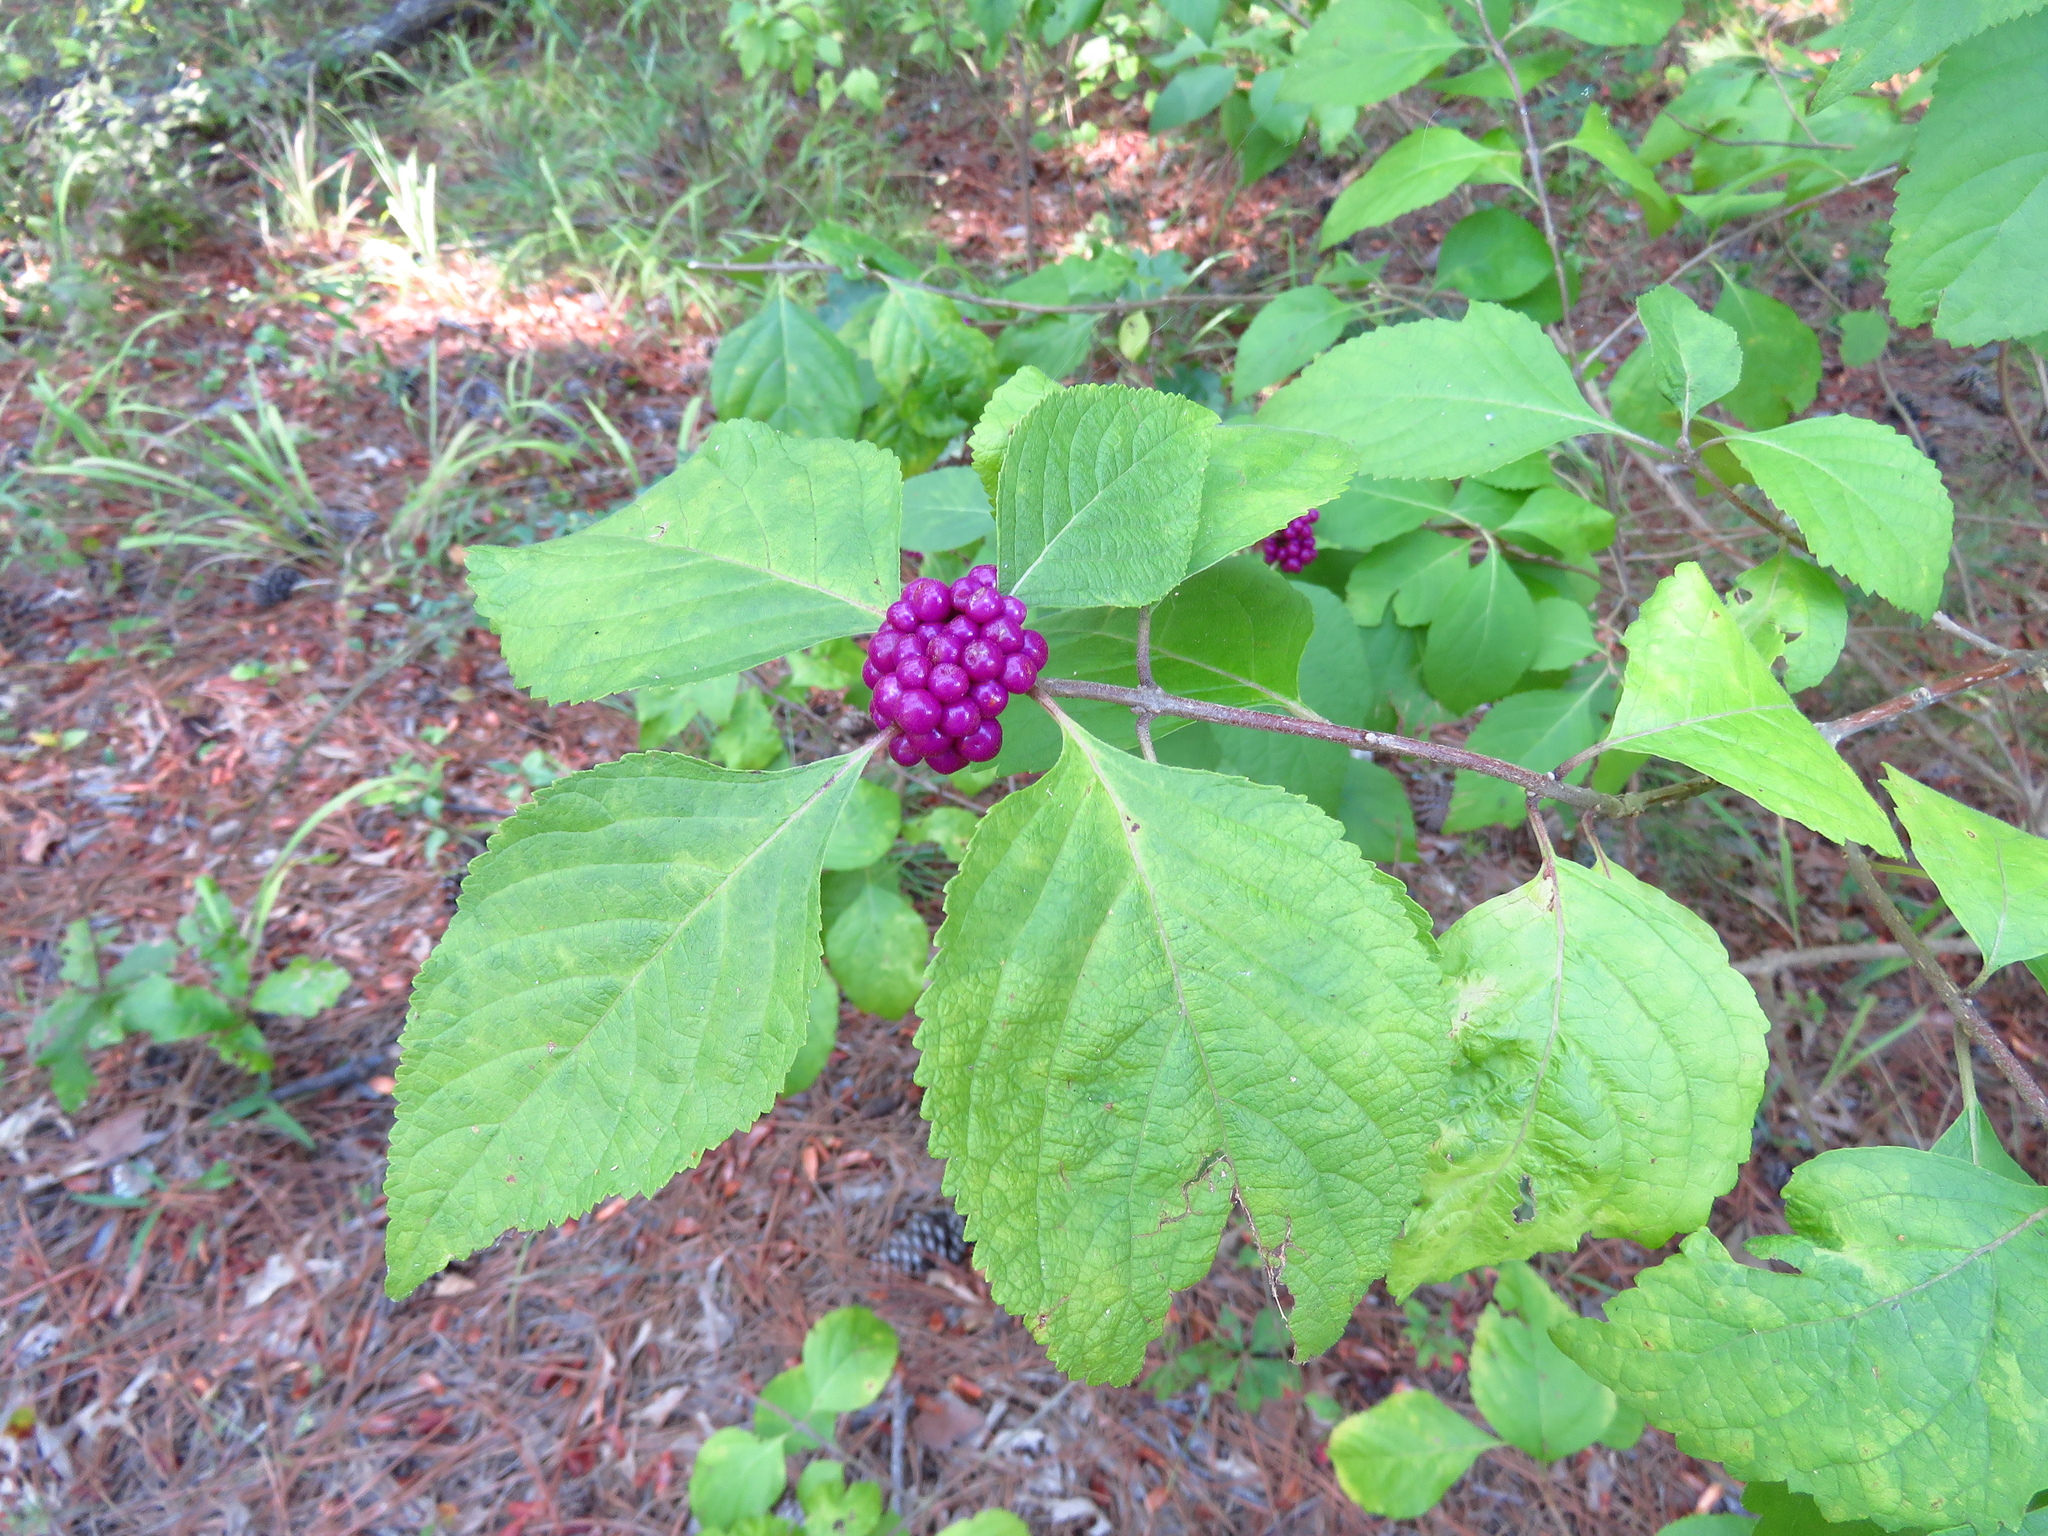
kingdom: Plantae
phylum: Tracheophyta
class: Magnoliopsida
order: Lamiales
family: Lamiaceae
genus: Callicarpa
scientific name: Callicarpa americana
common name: American beautyberry
